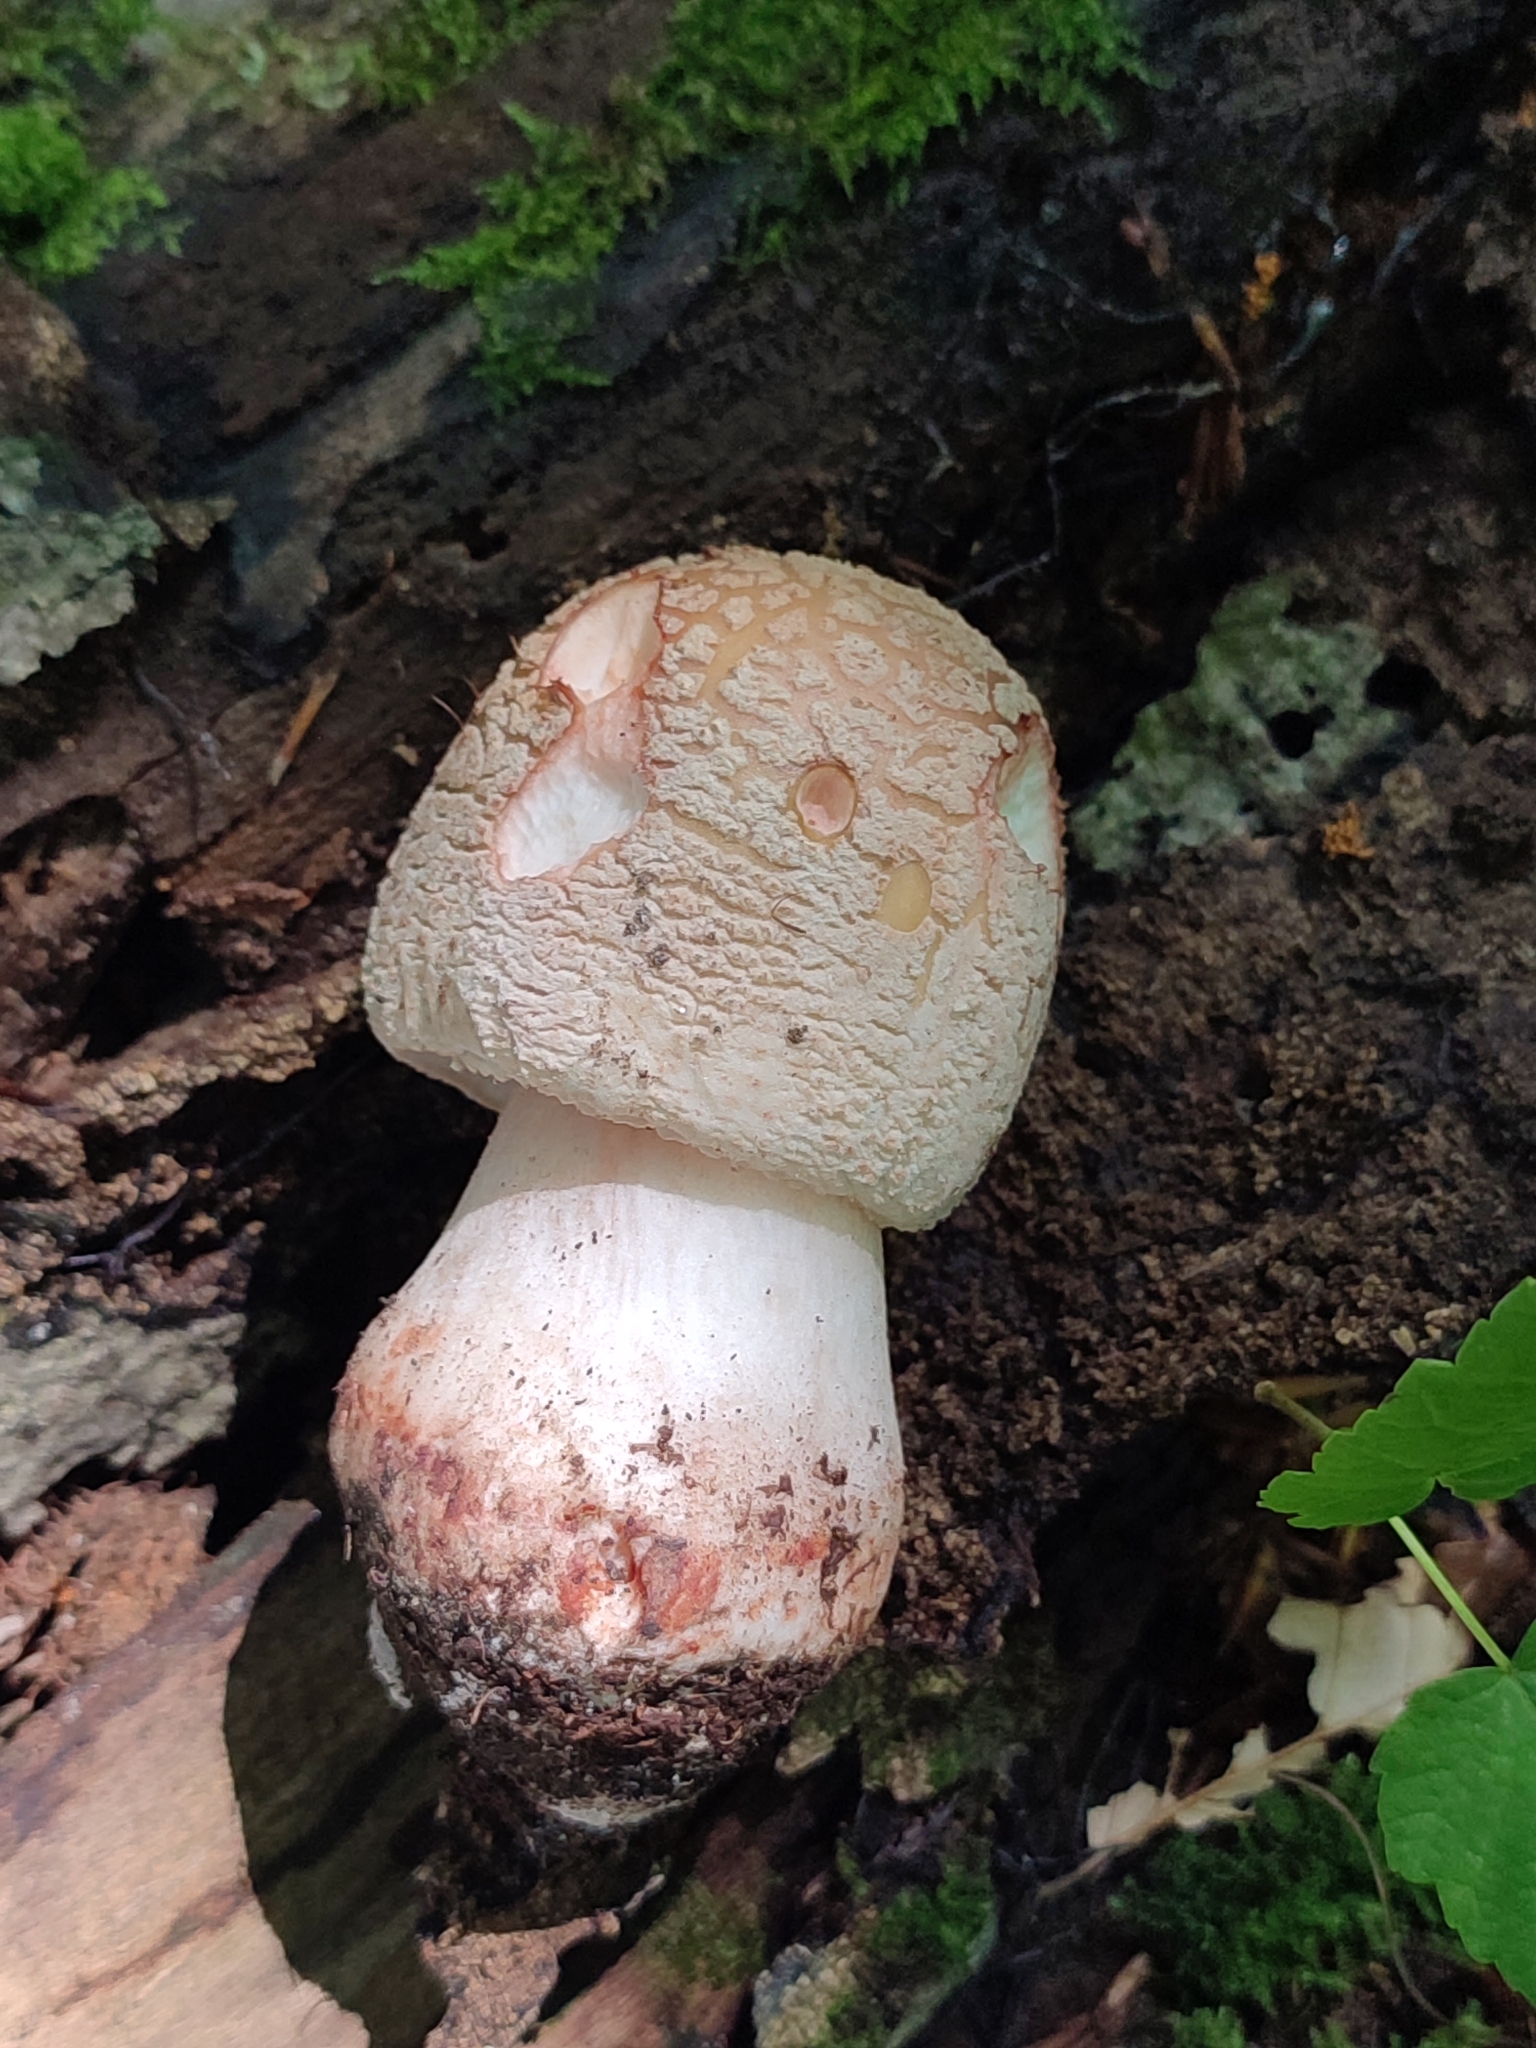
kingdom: Fungi
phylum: Basidiomycota
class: Agaricomycetes
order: Agaricales
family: Amanitaceae
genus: Amanita
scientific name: Amanita rubescens
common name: Blusher
